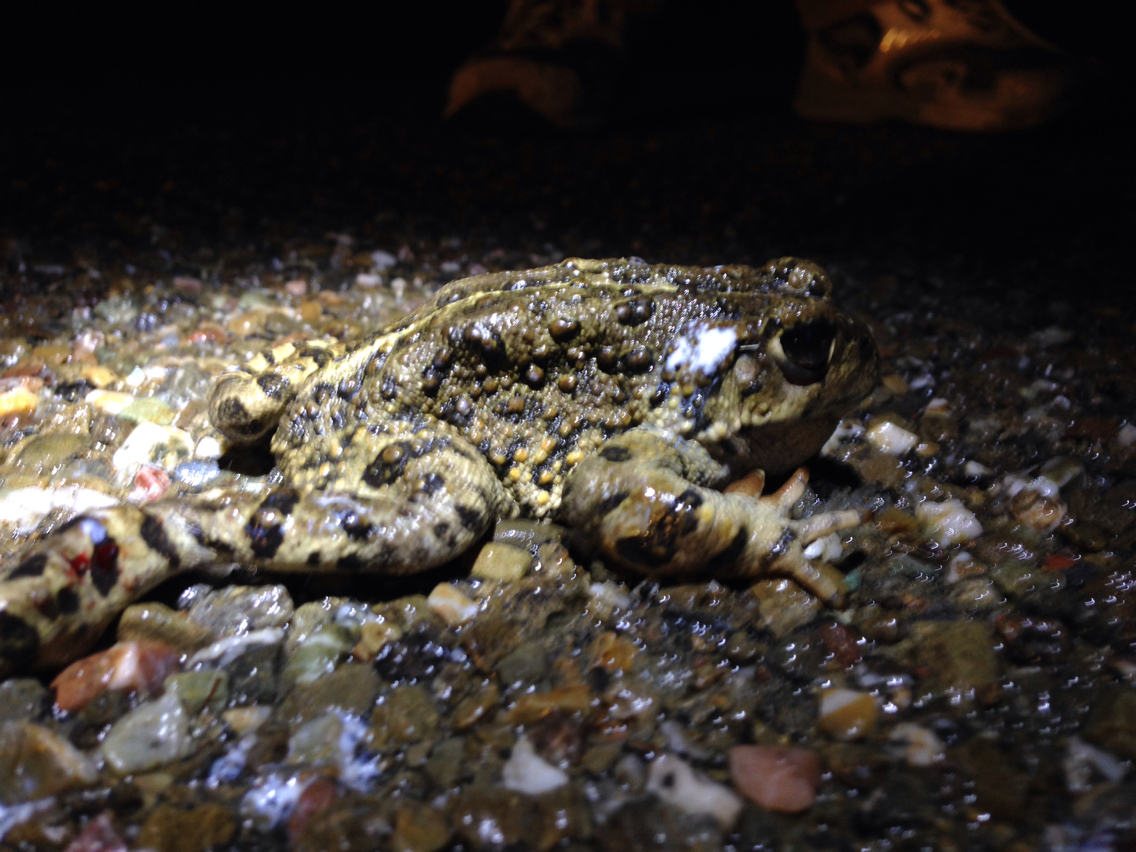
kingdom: Animalia
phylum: Chordata
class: Amphibia
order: Anura
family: Bufonidae
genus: Anaxyrus
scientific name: Anaxyrus boreas
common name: Western toad
